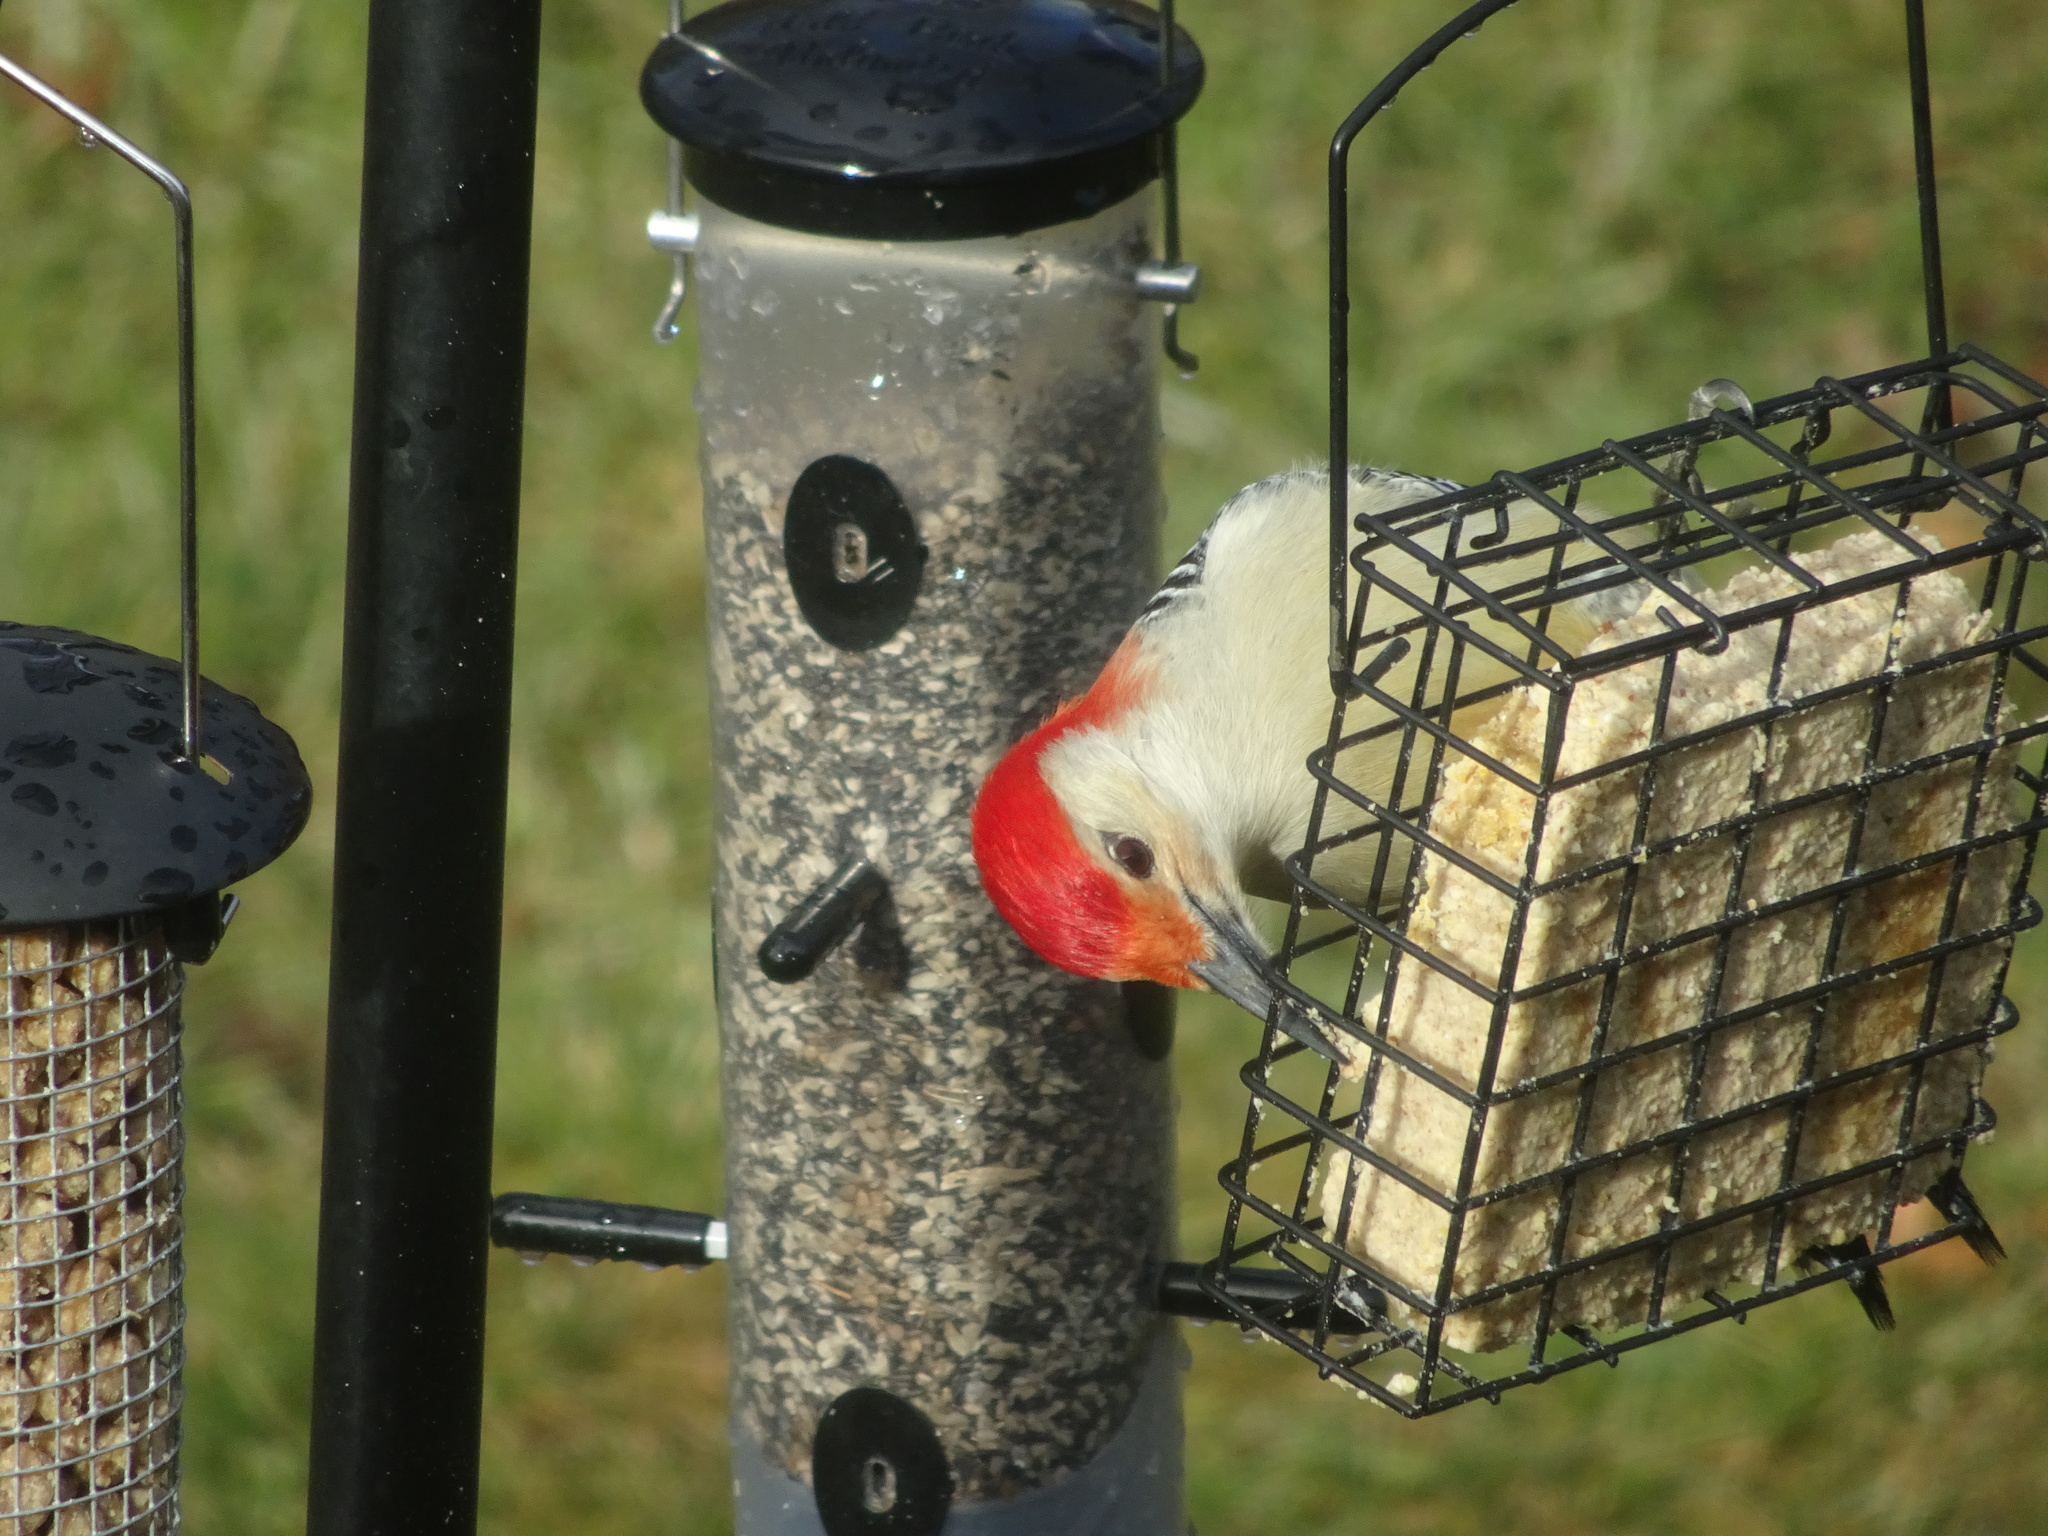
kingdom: Animalia
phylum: Chordata
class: Aves
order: Piciformes
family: Picidae
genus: Melanerpes
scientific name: Melanerpes carolinus
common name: Red-bellied woodpecker
